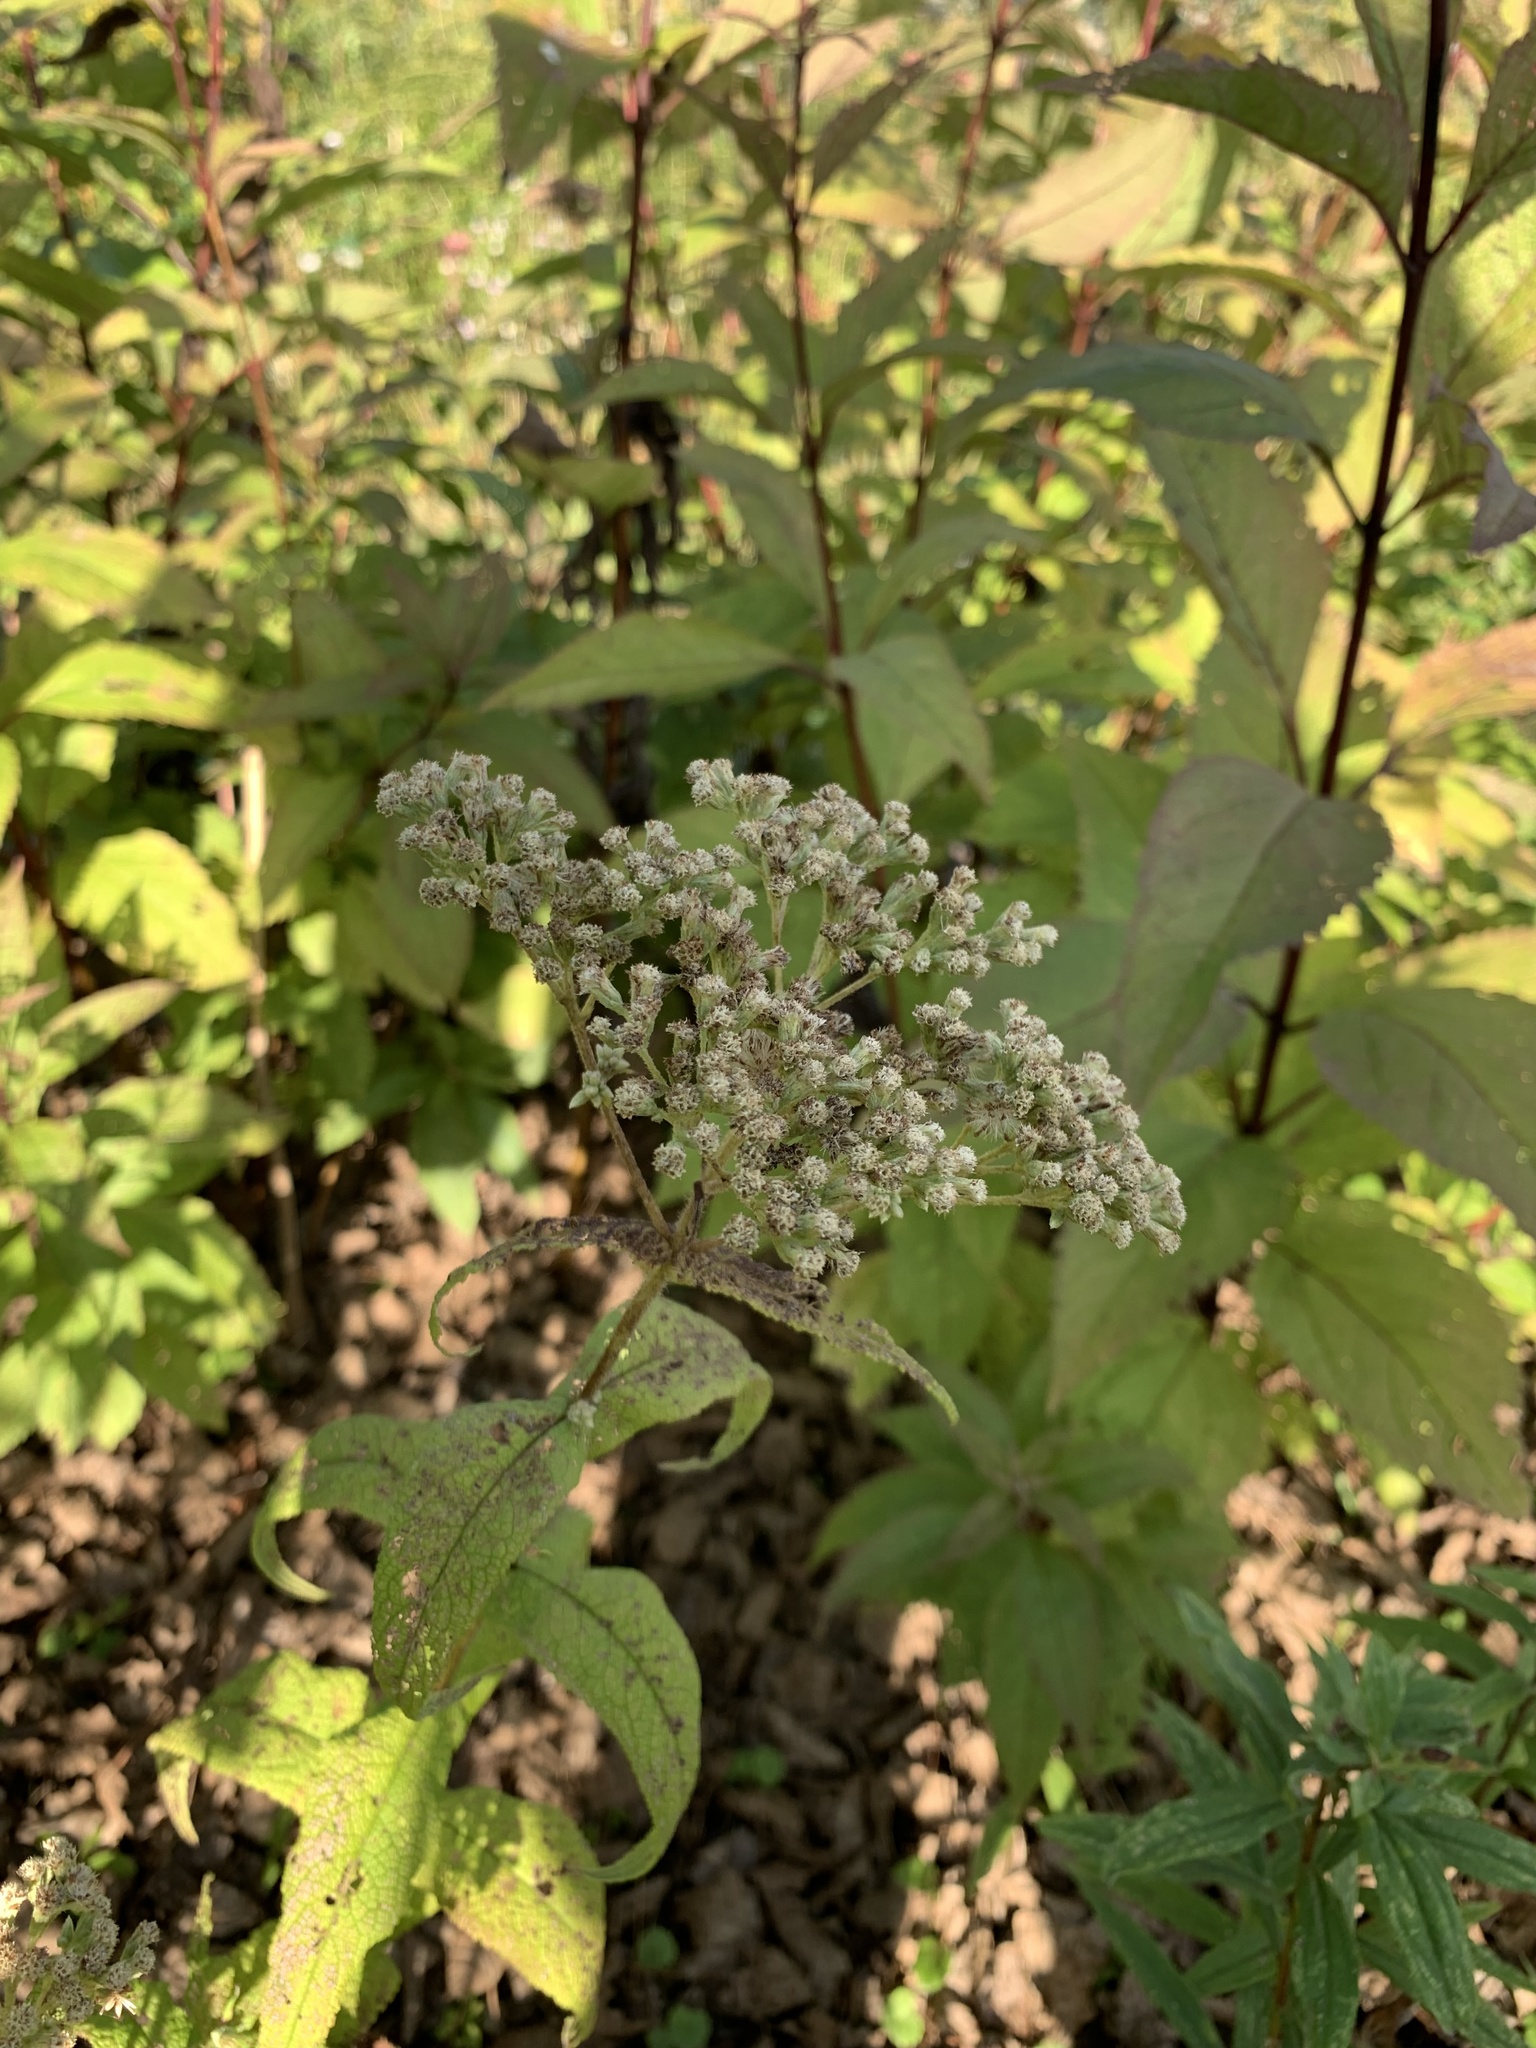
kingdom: Plantae
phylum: Tracheophyta
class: Magnoliopsida
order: Asterales
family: Asteraceae
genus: Eupatorium
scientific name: Eupatorium perfoliatum
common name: Boneset
